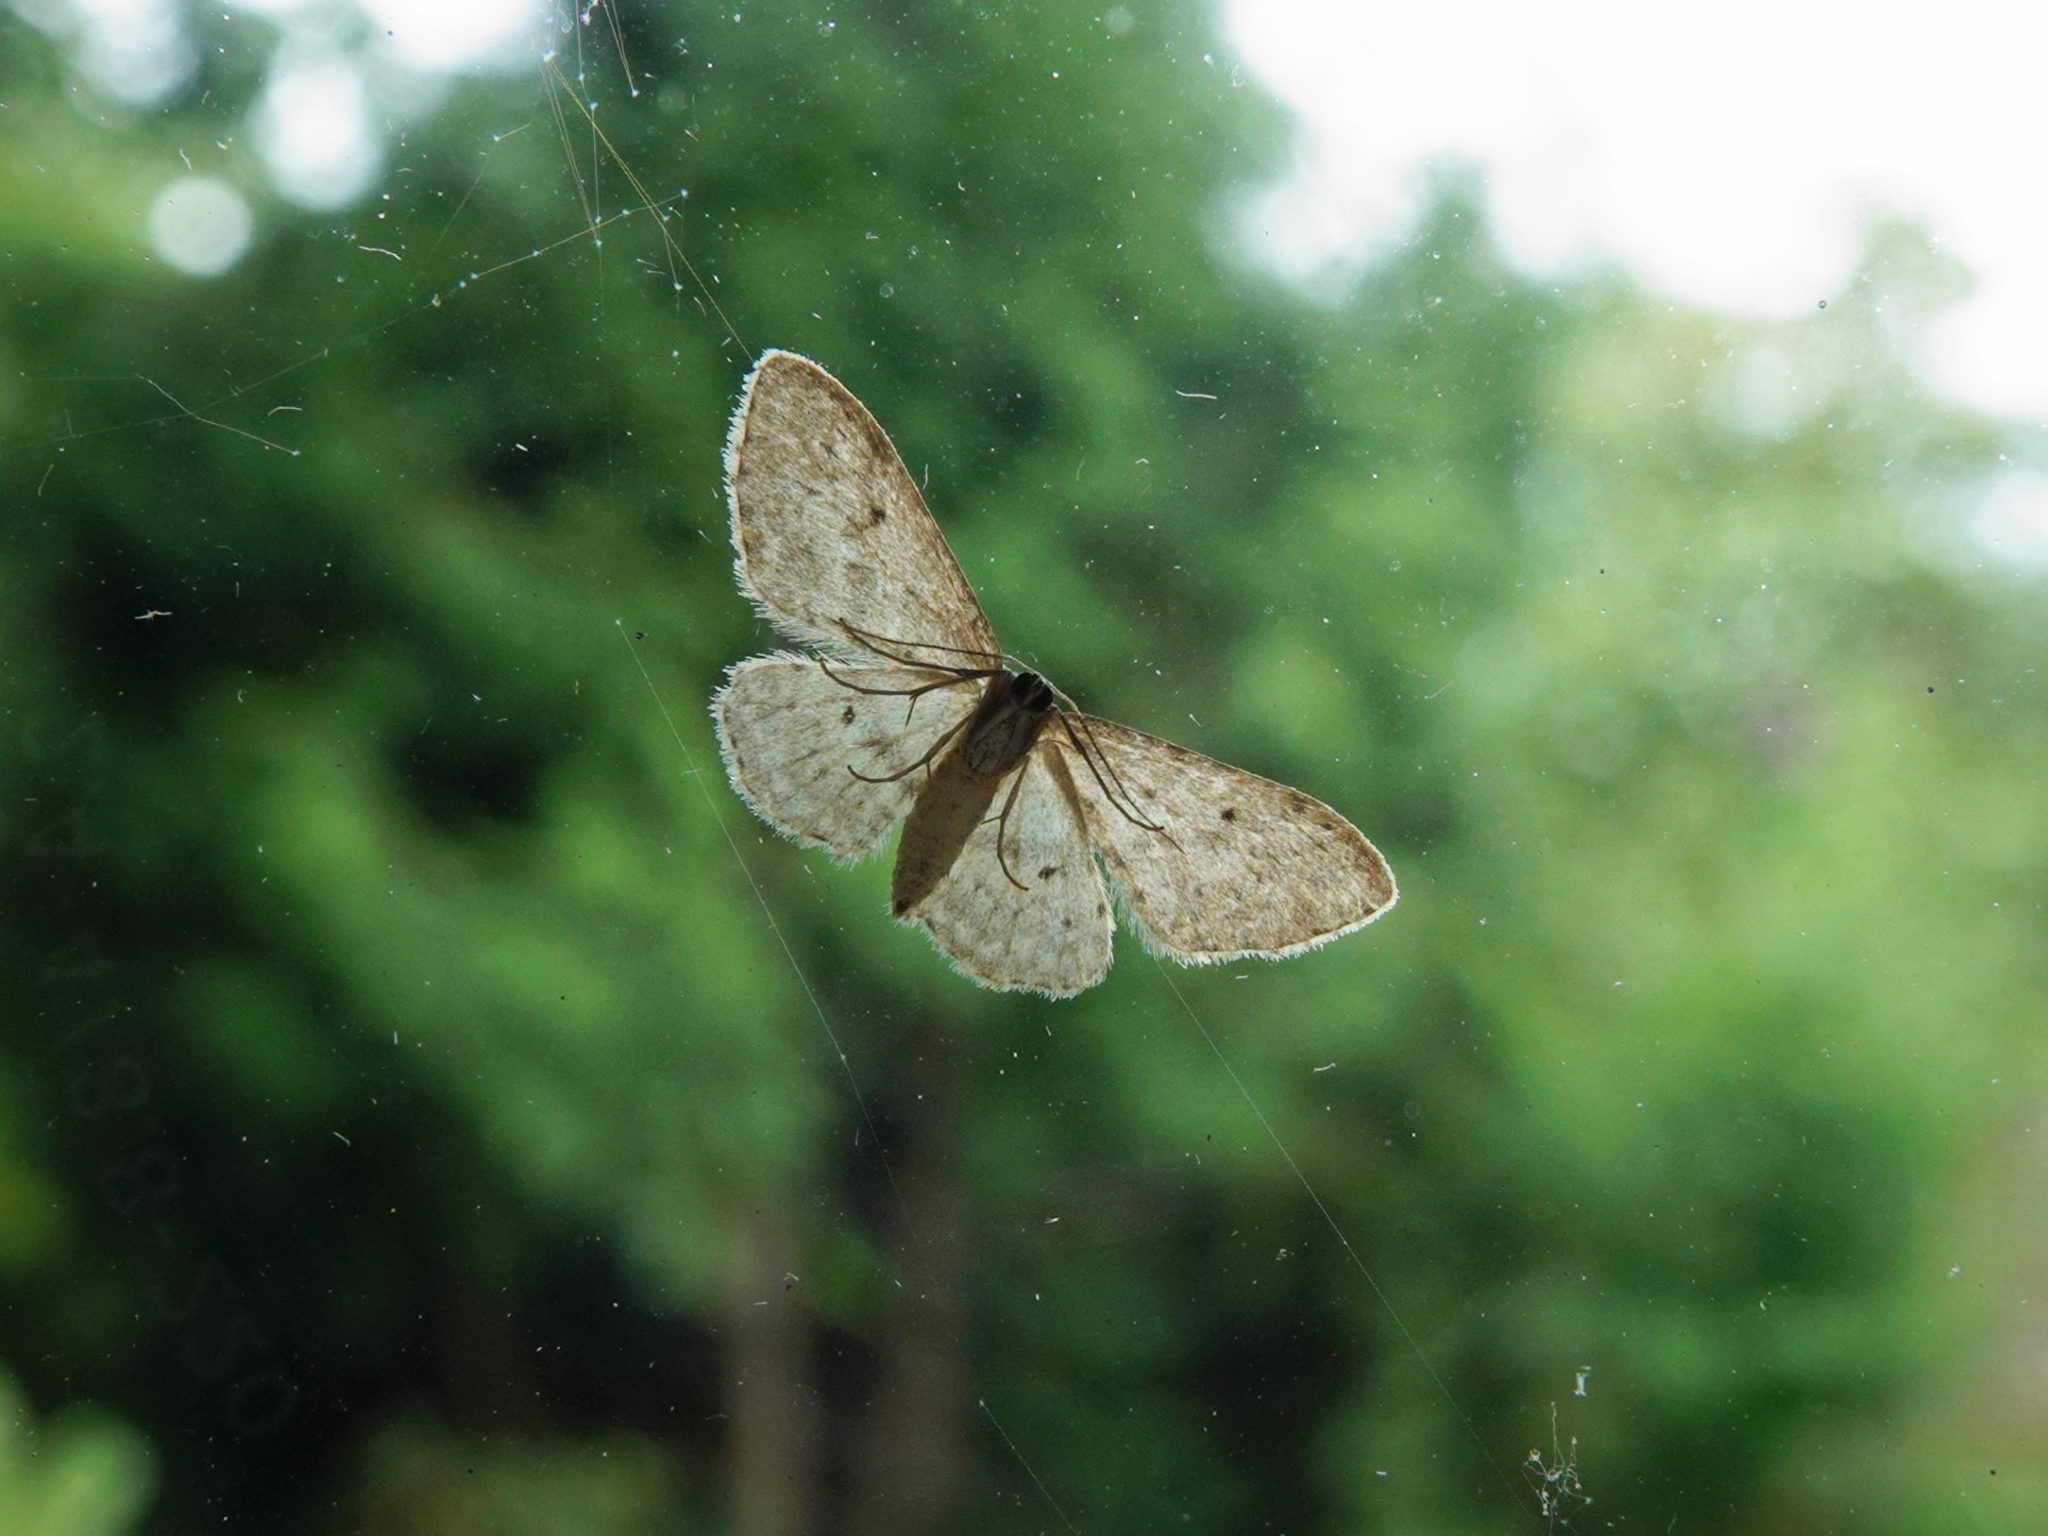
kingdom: Animalia
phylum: Arthropoda
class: Insecta
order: Lepidoptera
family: Geometridae
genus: Idaea
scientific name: Idaea seriata
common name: Small dusty wave
